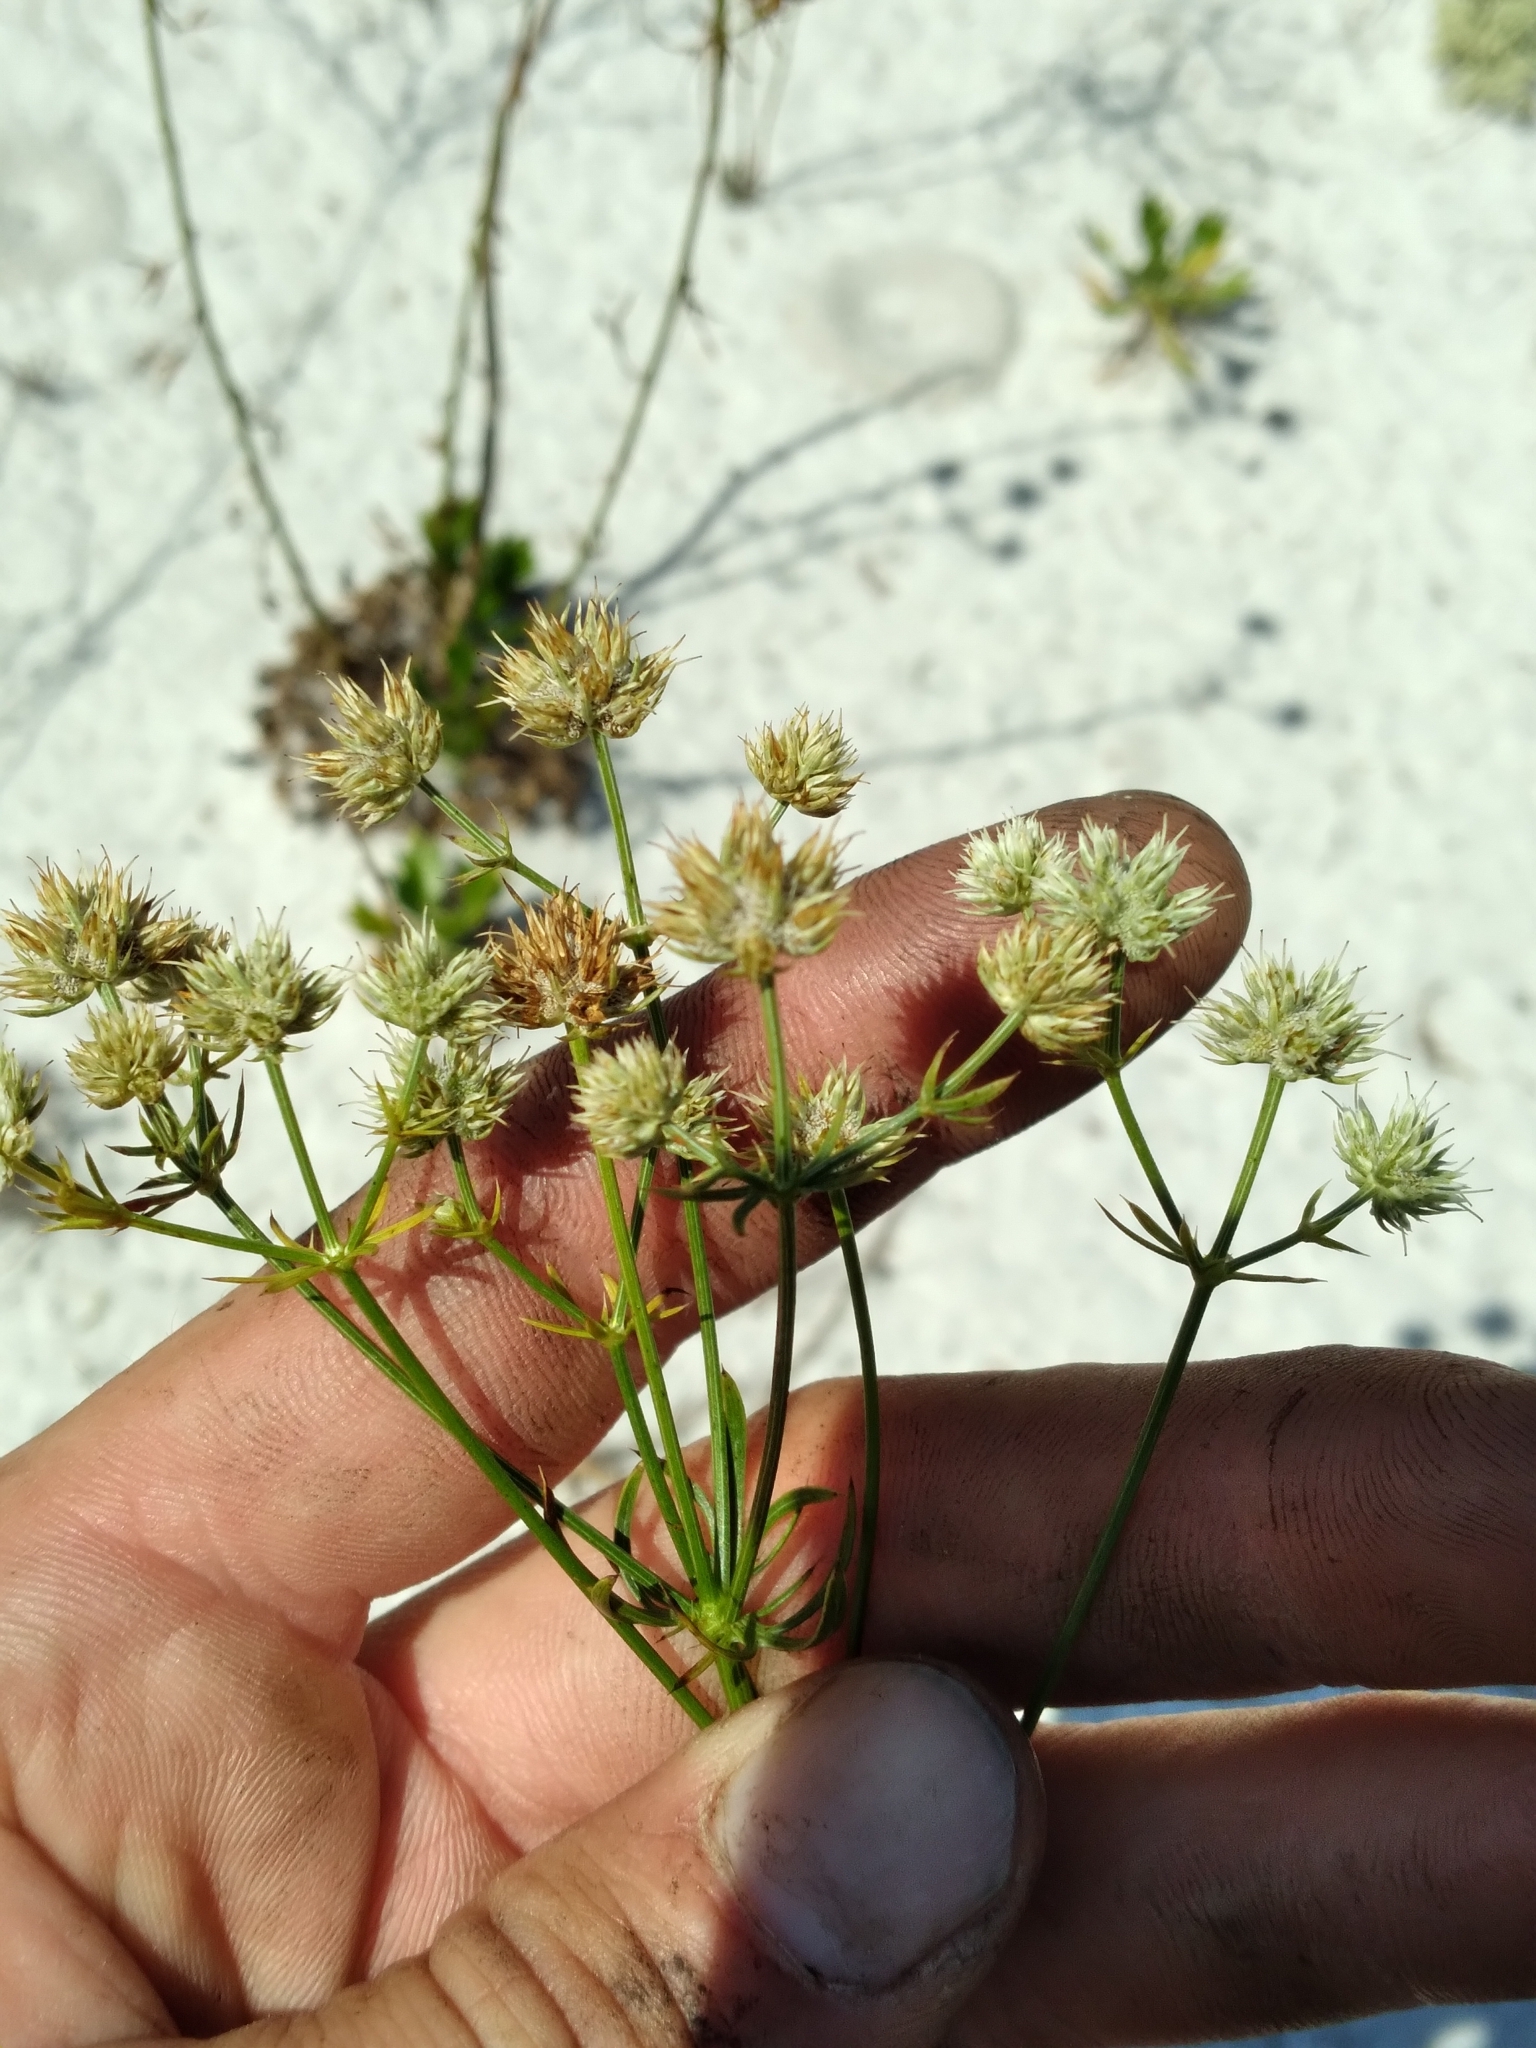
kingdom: Plantae
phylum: Tracheophyta
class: Magnoliopsida
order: Apiales
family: Apiaceae
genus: Eryngium
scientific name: Eryngium cuneifolium
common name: Snakeroot
